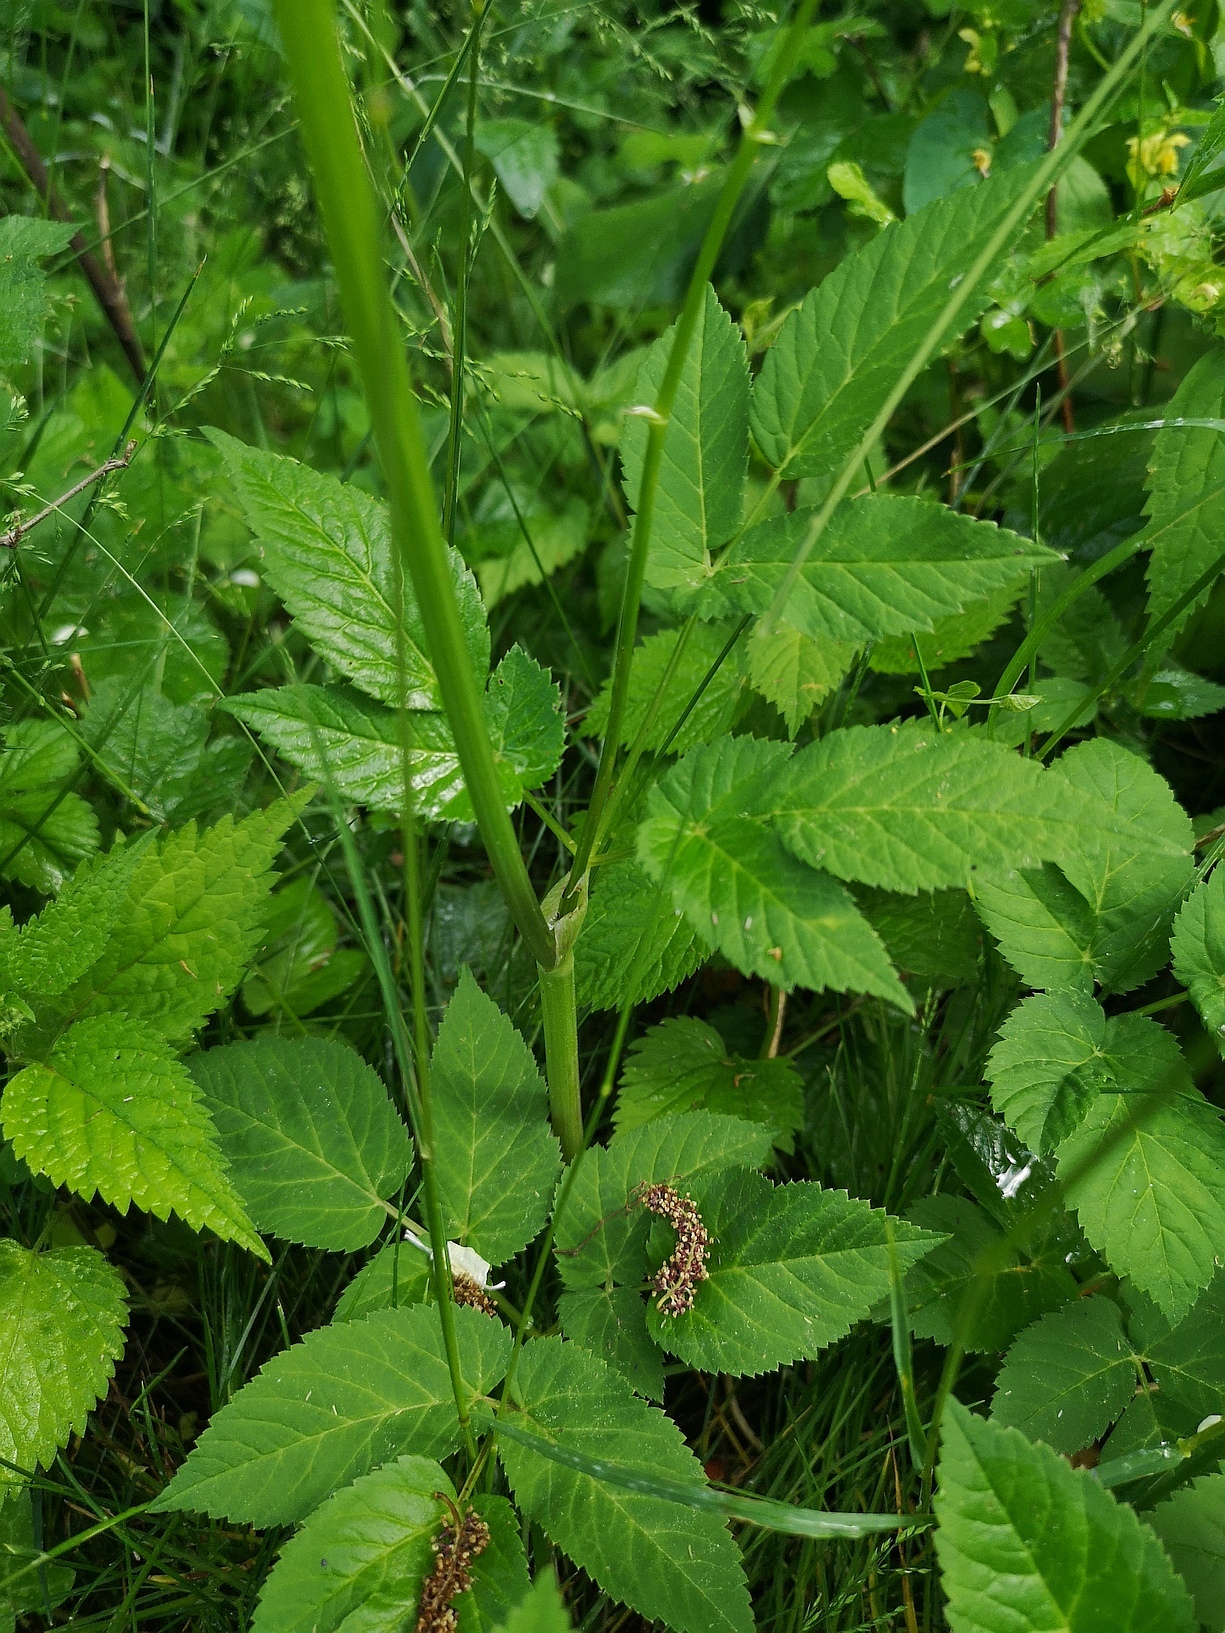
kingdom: Plantae
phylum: Tracheophyta
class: Magnoliopsida
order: Apiales
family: Apiaceae
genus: Aegopodium
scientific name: Aegopodium podagraria
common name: Ground-elder
